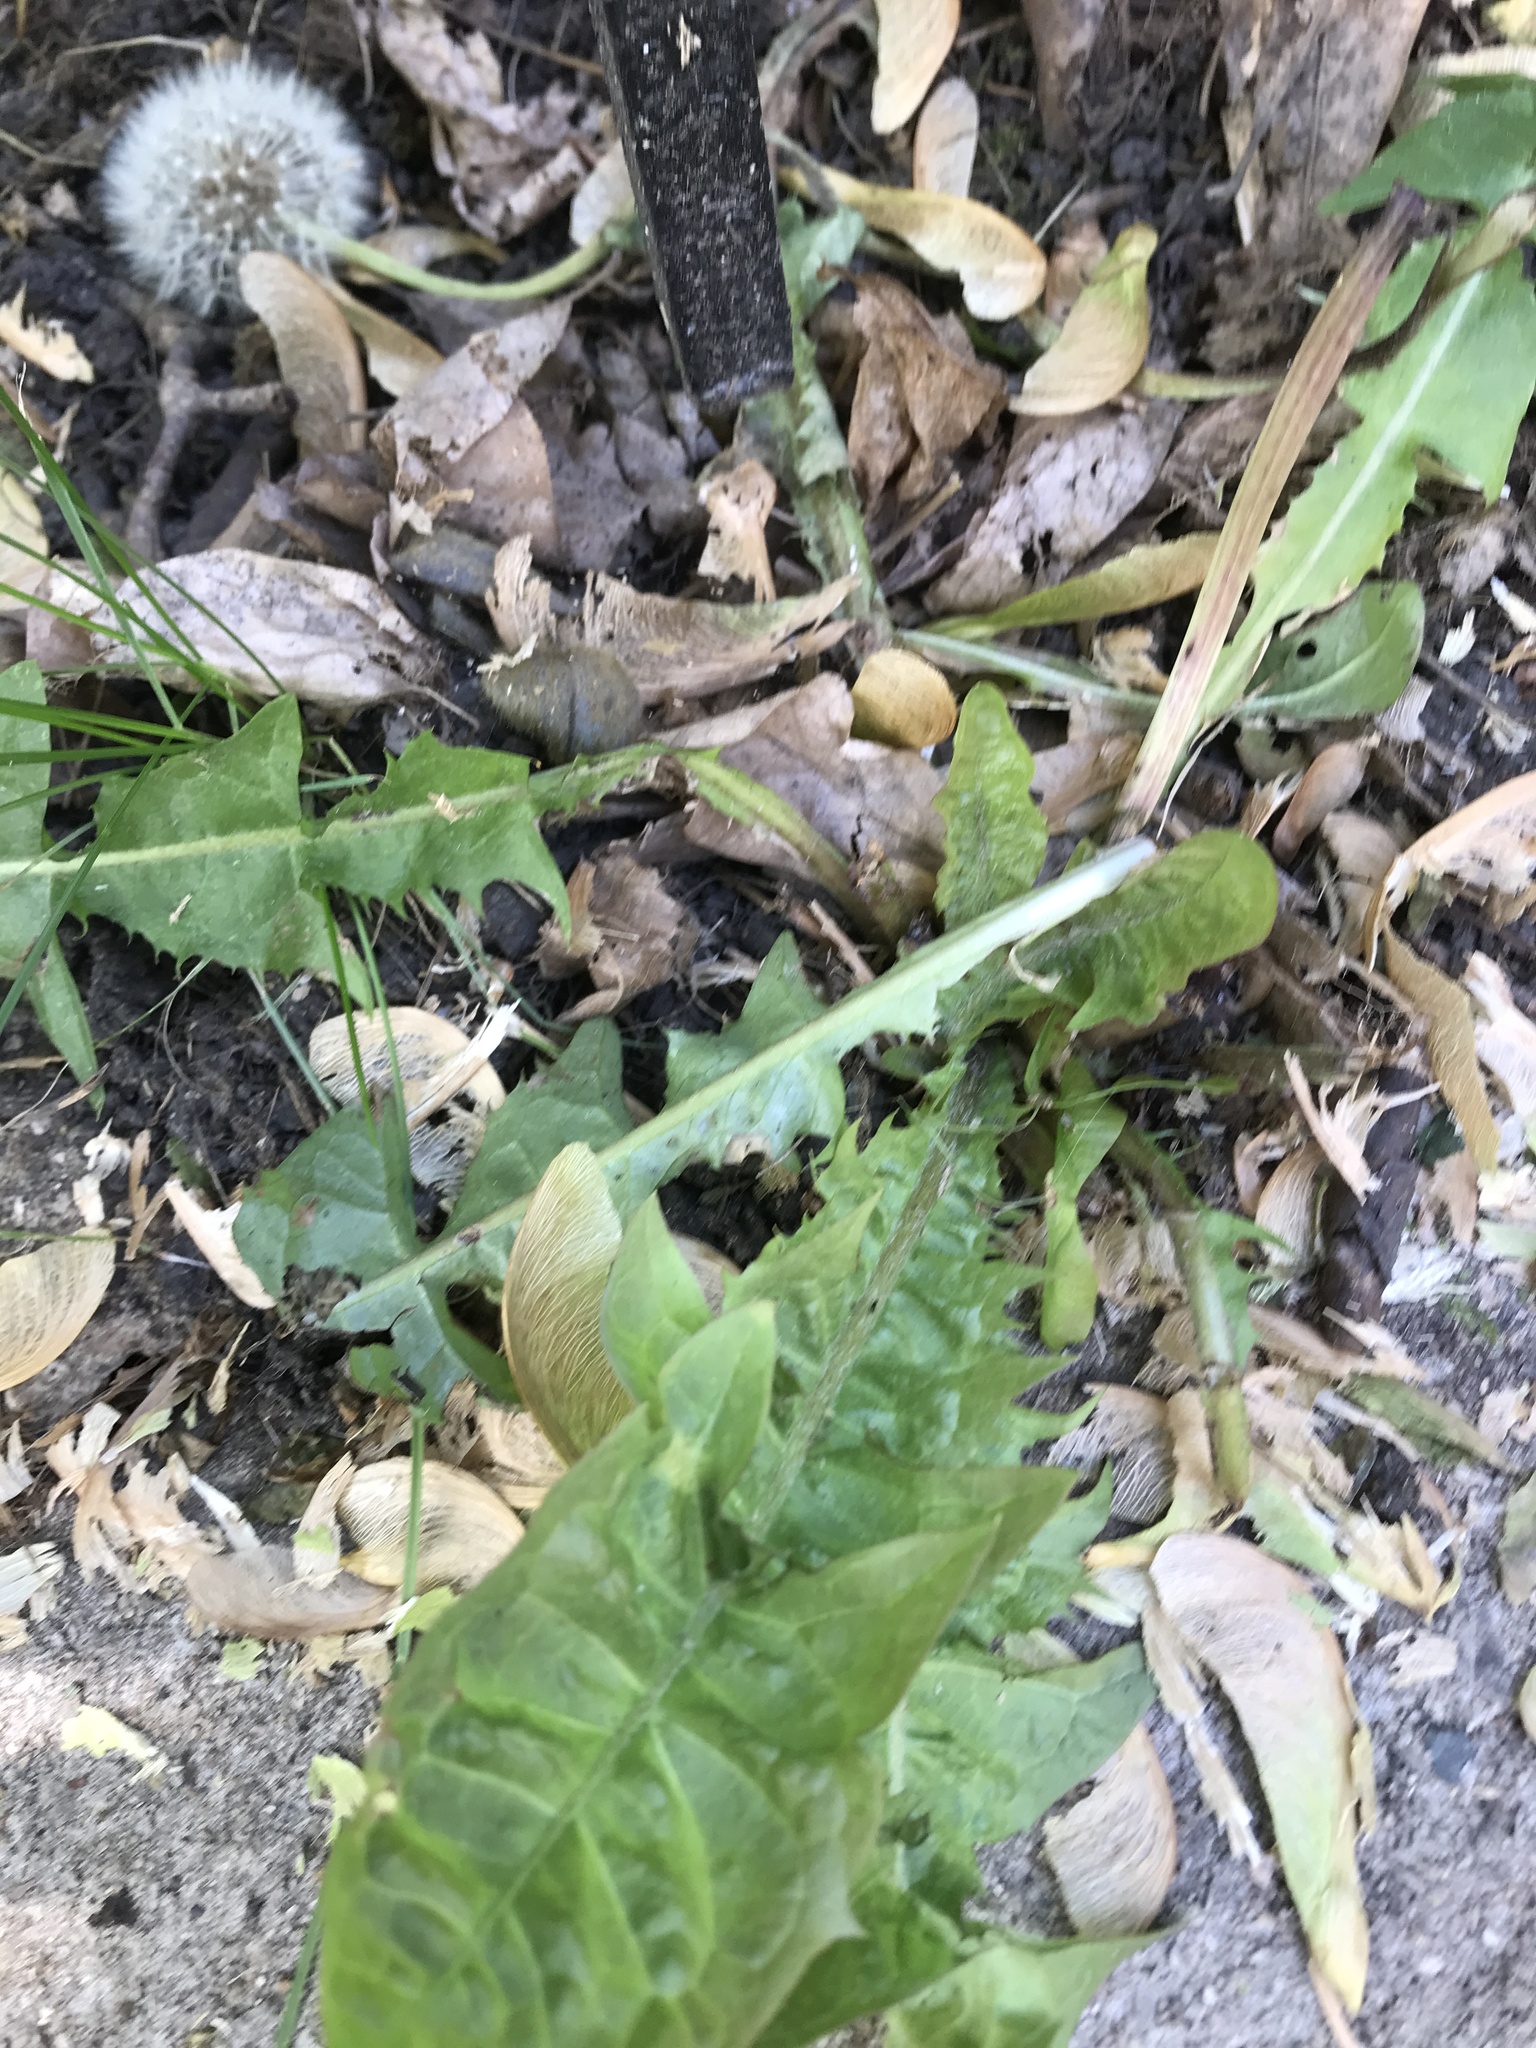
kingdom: Plantae
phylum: Tracheophyta
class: Magnoliopsida
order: Asterales
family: Asteraceae
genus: Taraxacum
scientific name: Taraxacum officinale
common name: Common dandelion
